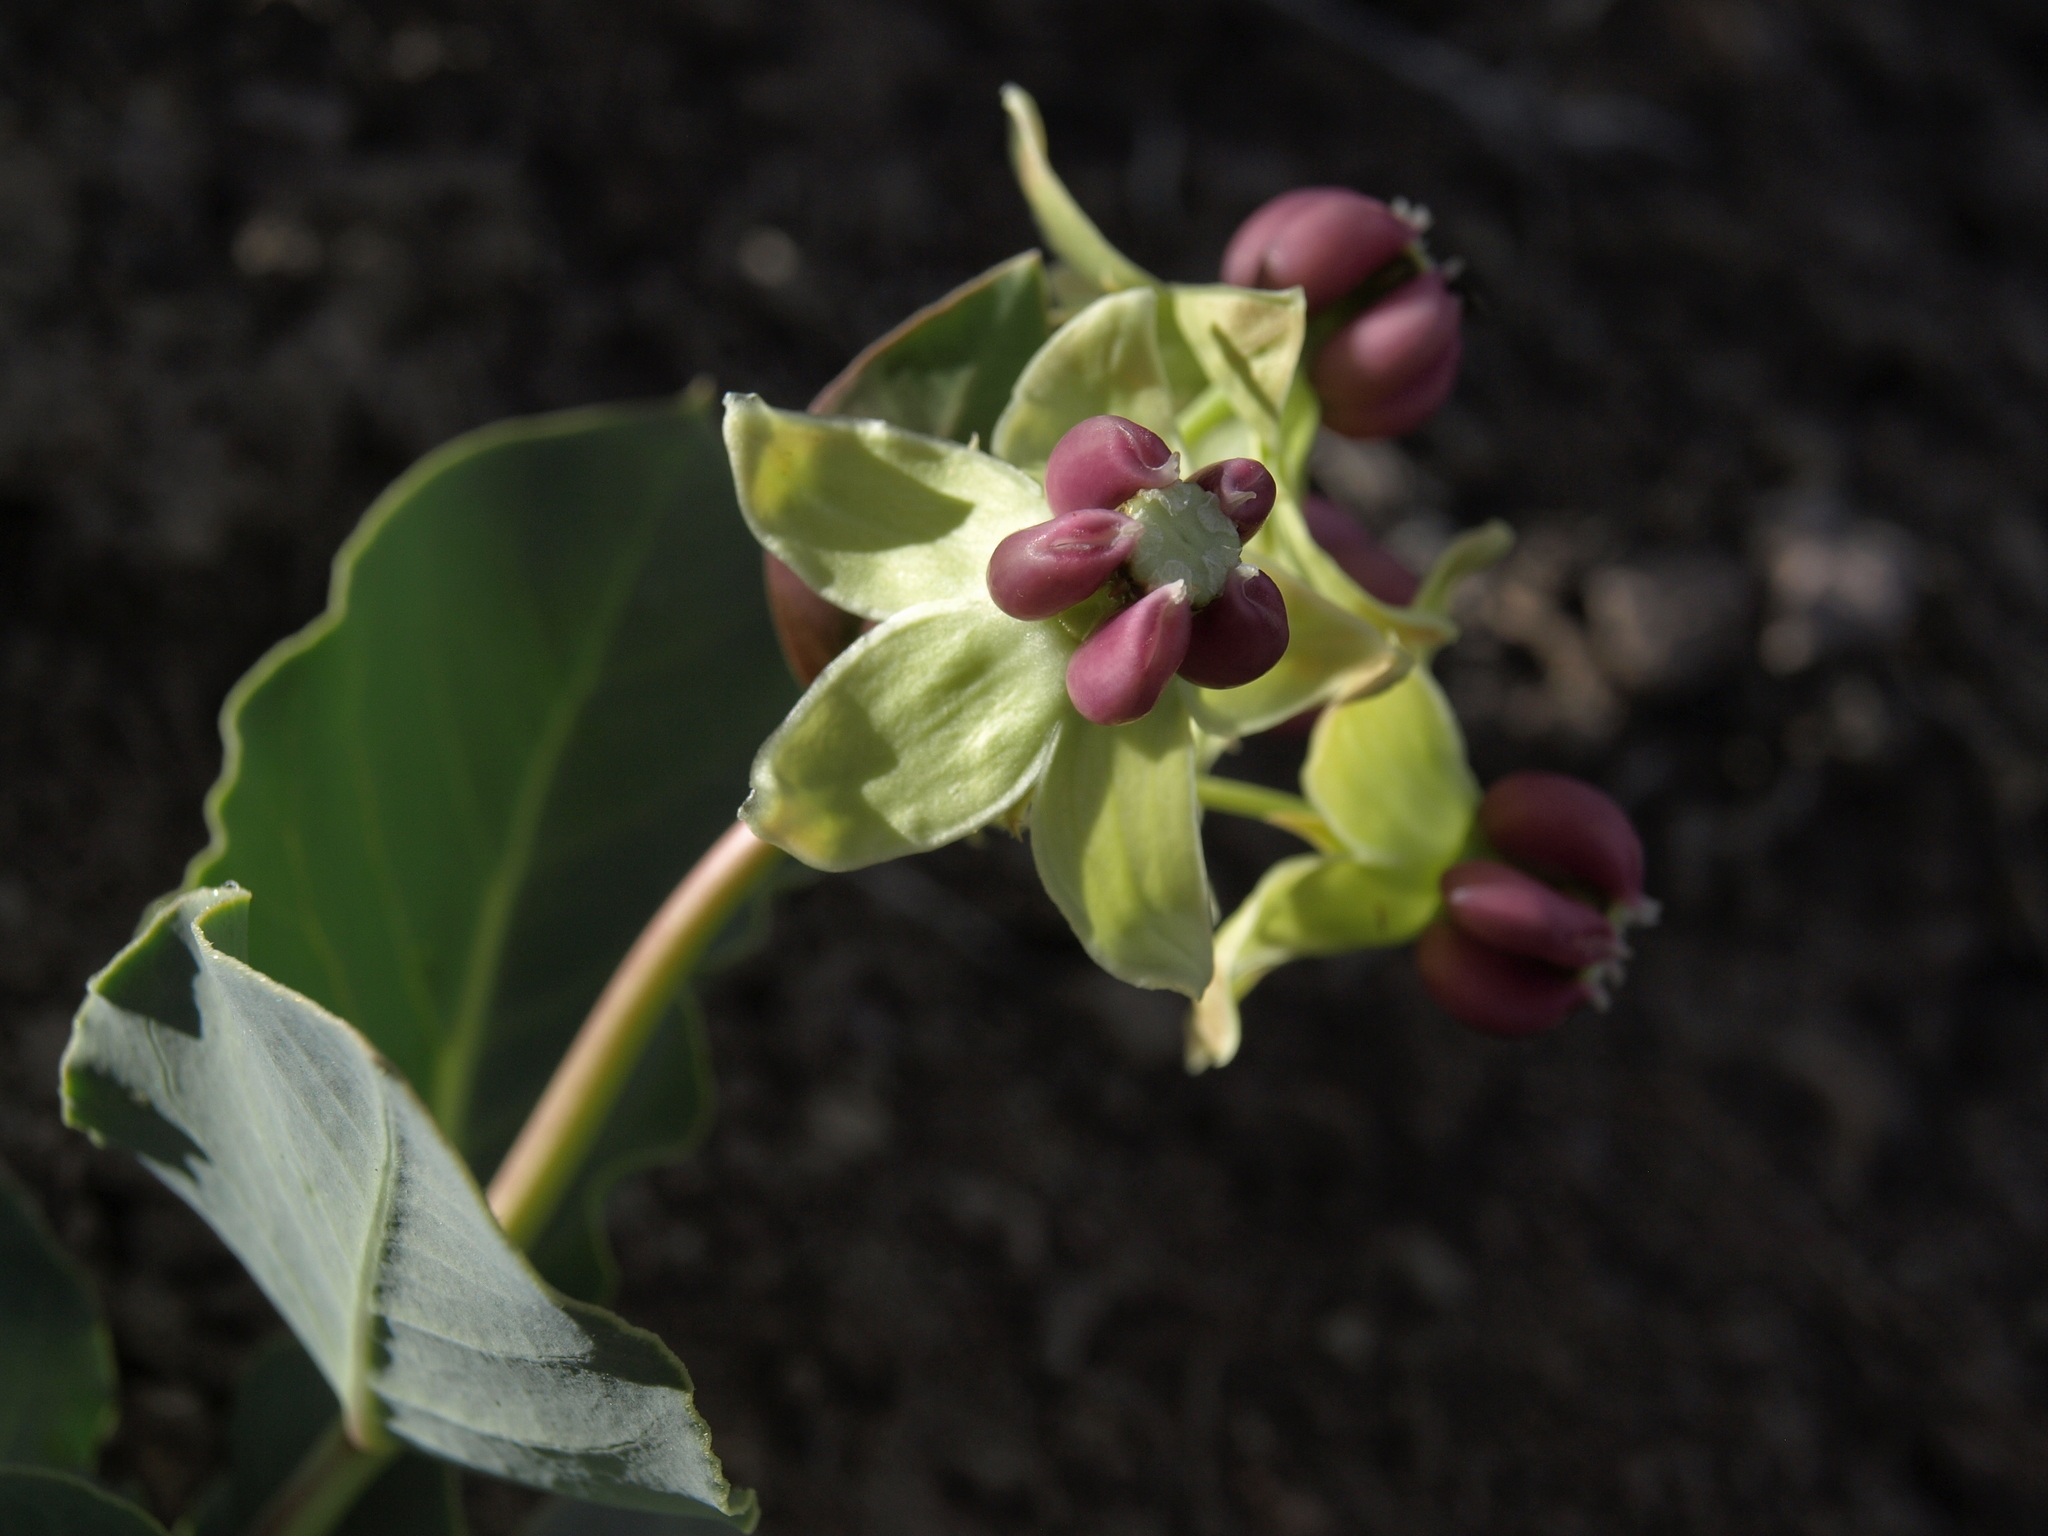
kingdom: Plantae
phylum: Tracheophyta
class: Magnoliopsida
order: Gentianales
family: Apocynaceae
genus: Asclepias
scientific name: Asclepias cryptoceras
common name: Humboldt mountains milkweed
